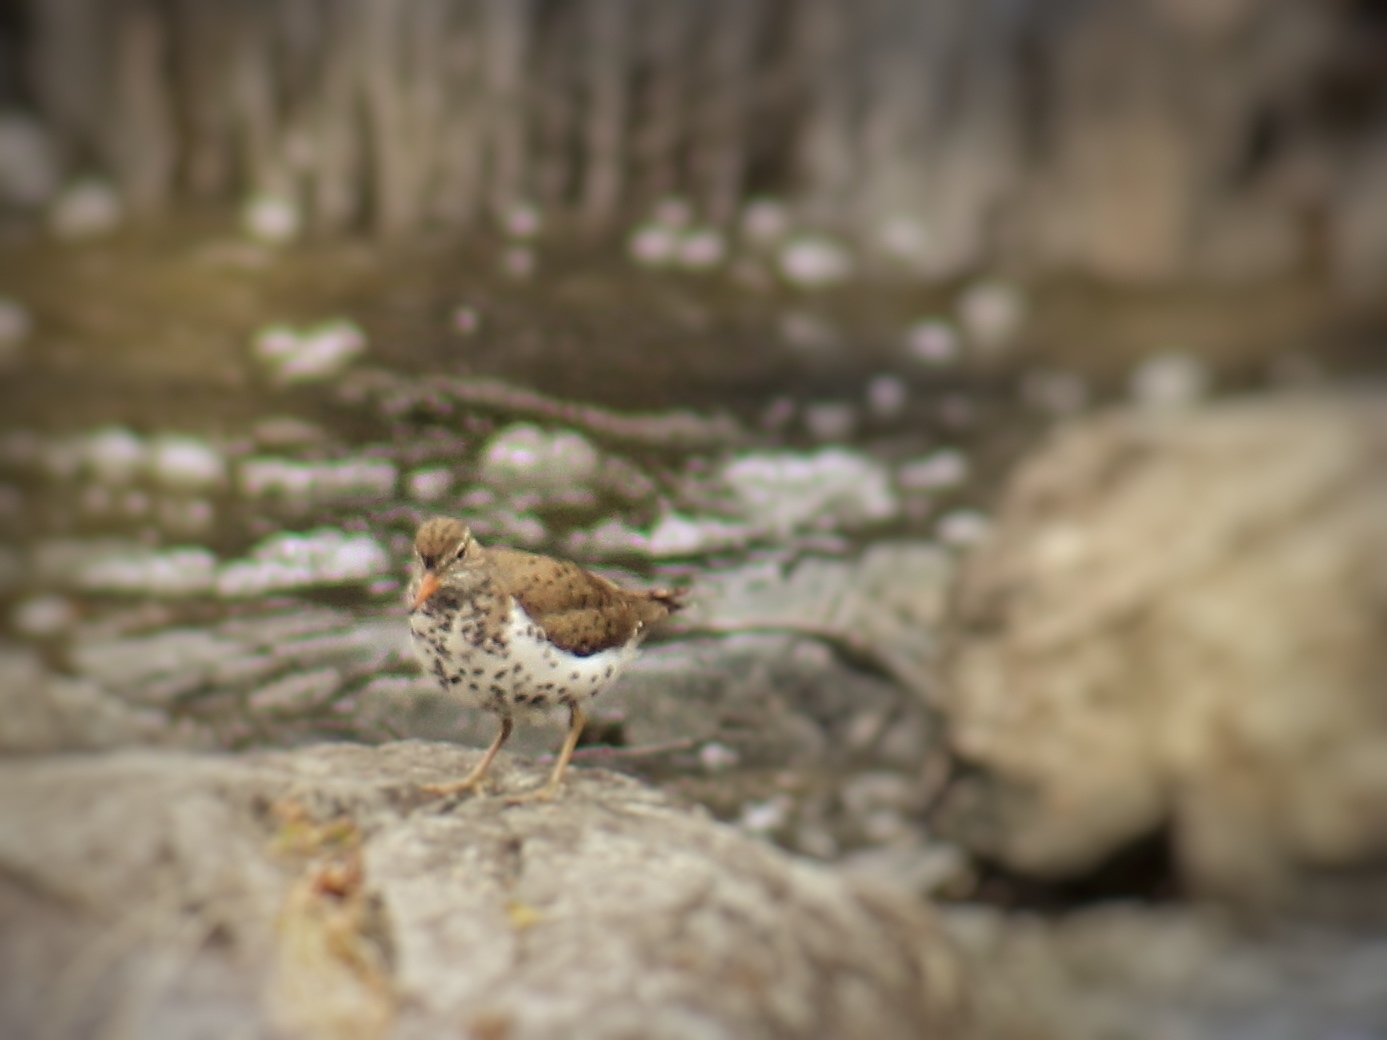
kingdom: Animalia
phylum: Chordata
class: Aves
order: Charadriiformes
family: Scolopacidae
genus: Actitis
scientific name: Actitis macularius
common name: Spotted sandpiper
